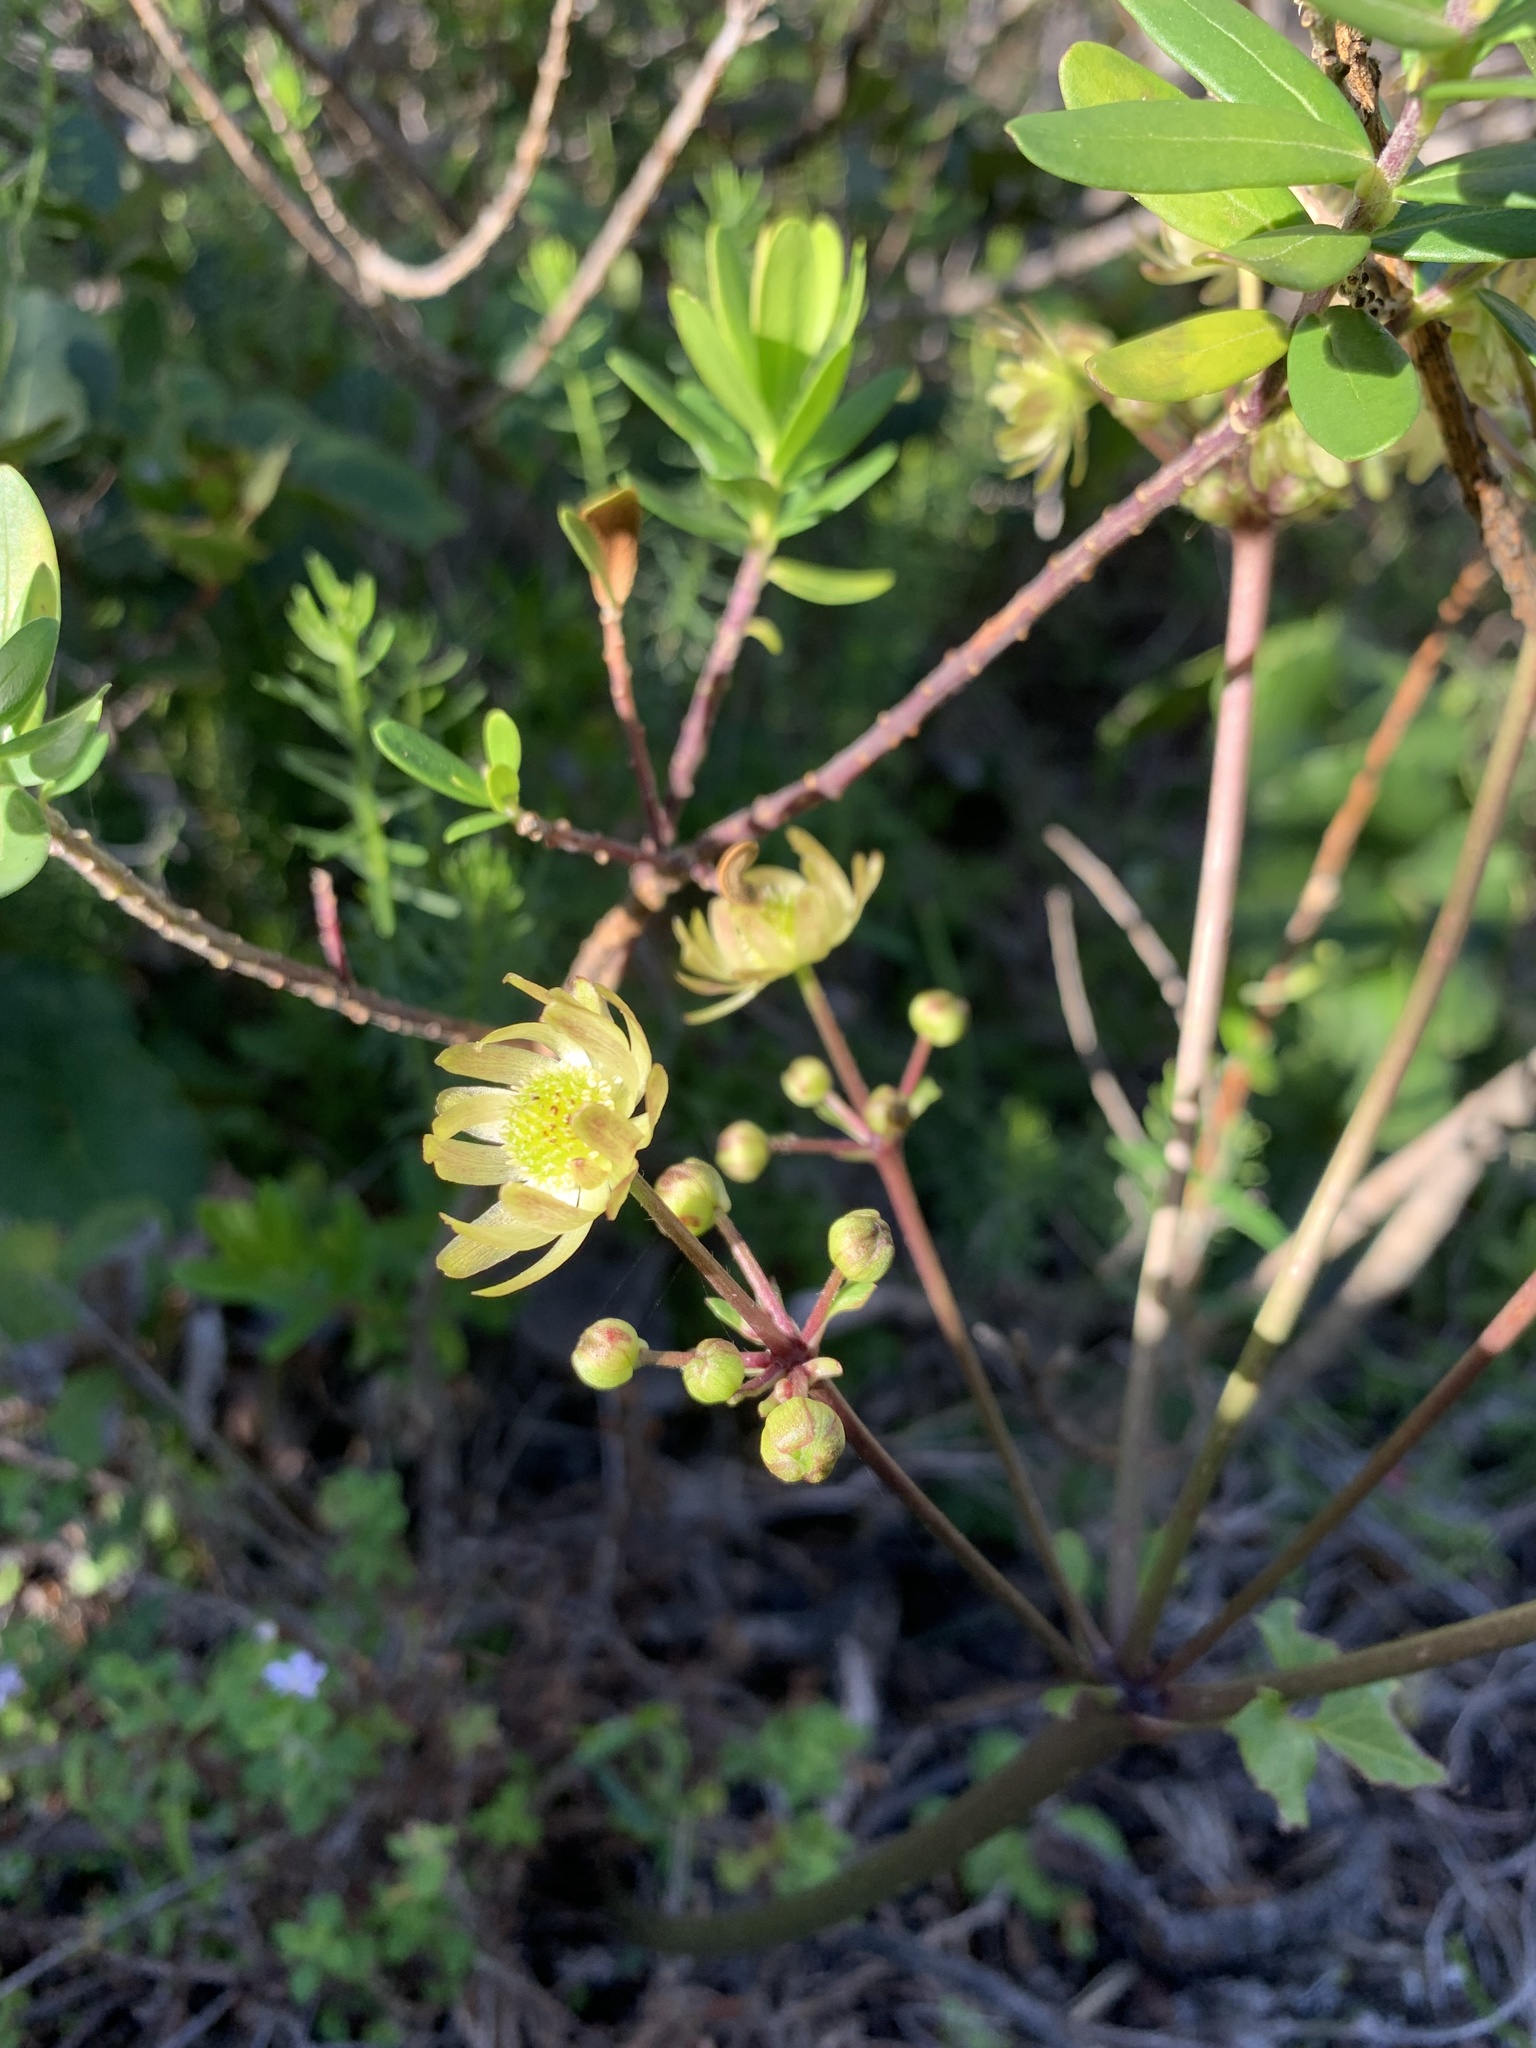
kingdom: Plantae
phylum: Tracheophyta
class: Magnoliopsida
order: Ranunculales
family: Ranunculaceae
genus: Knowltonia
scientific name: Knowltonia vesicatoria
